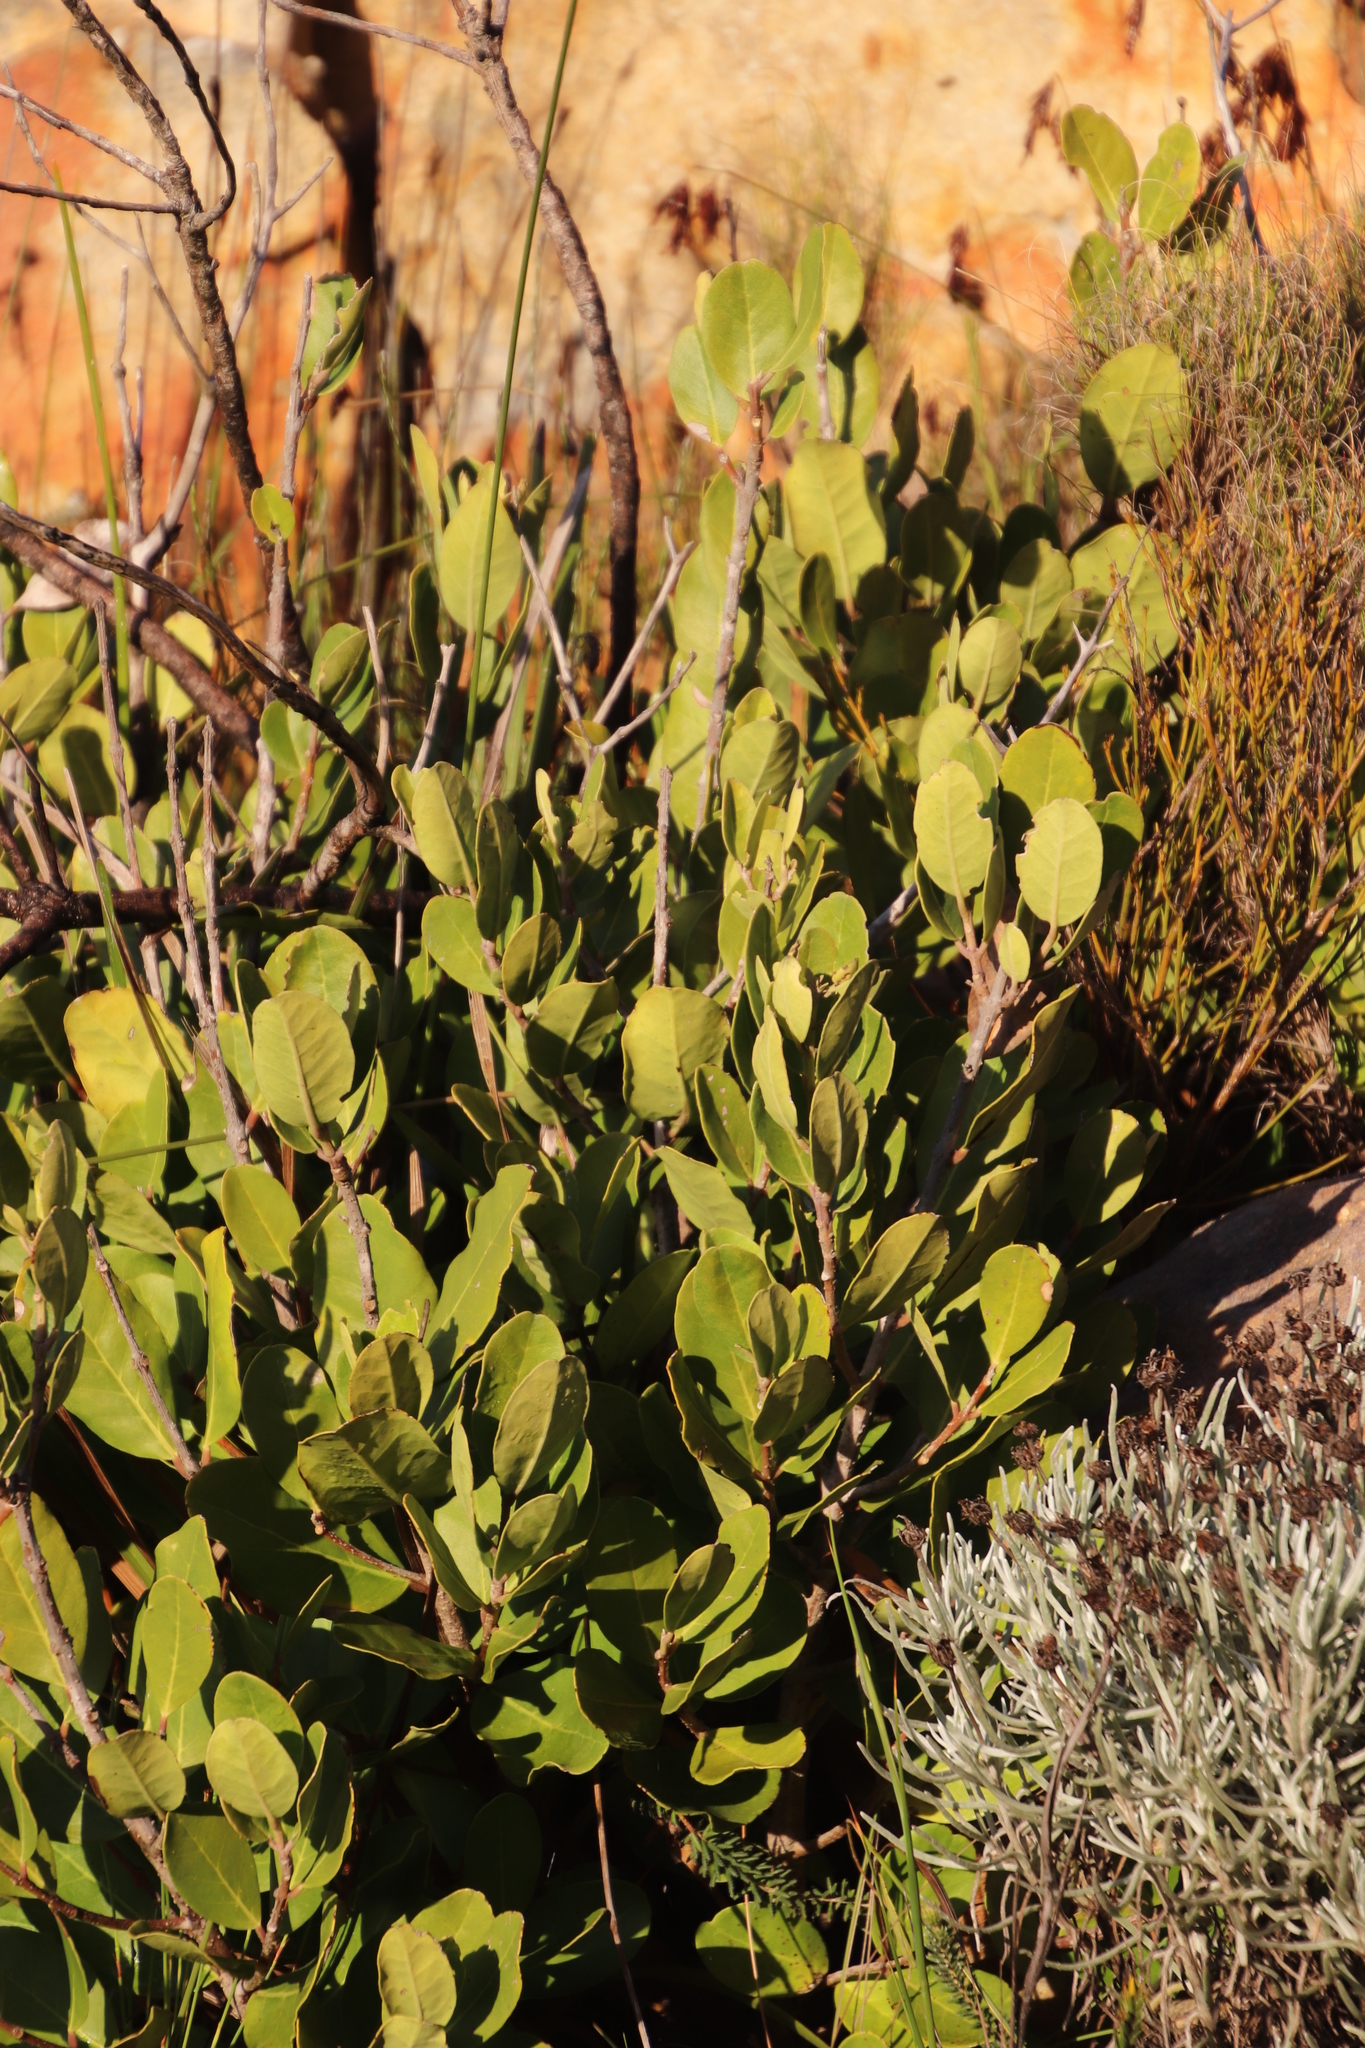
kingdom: Plantae
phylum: Tracheophyta
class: Magnoliopsida
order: Lamiales
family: Oleaceae
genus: Olea
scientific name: Olea capensis
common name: Black ironwood
